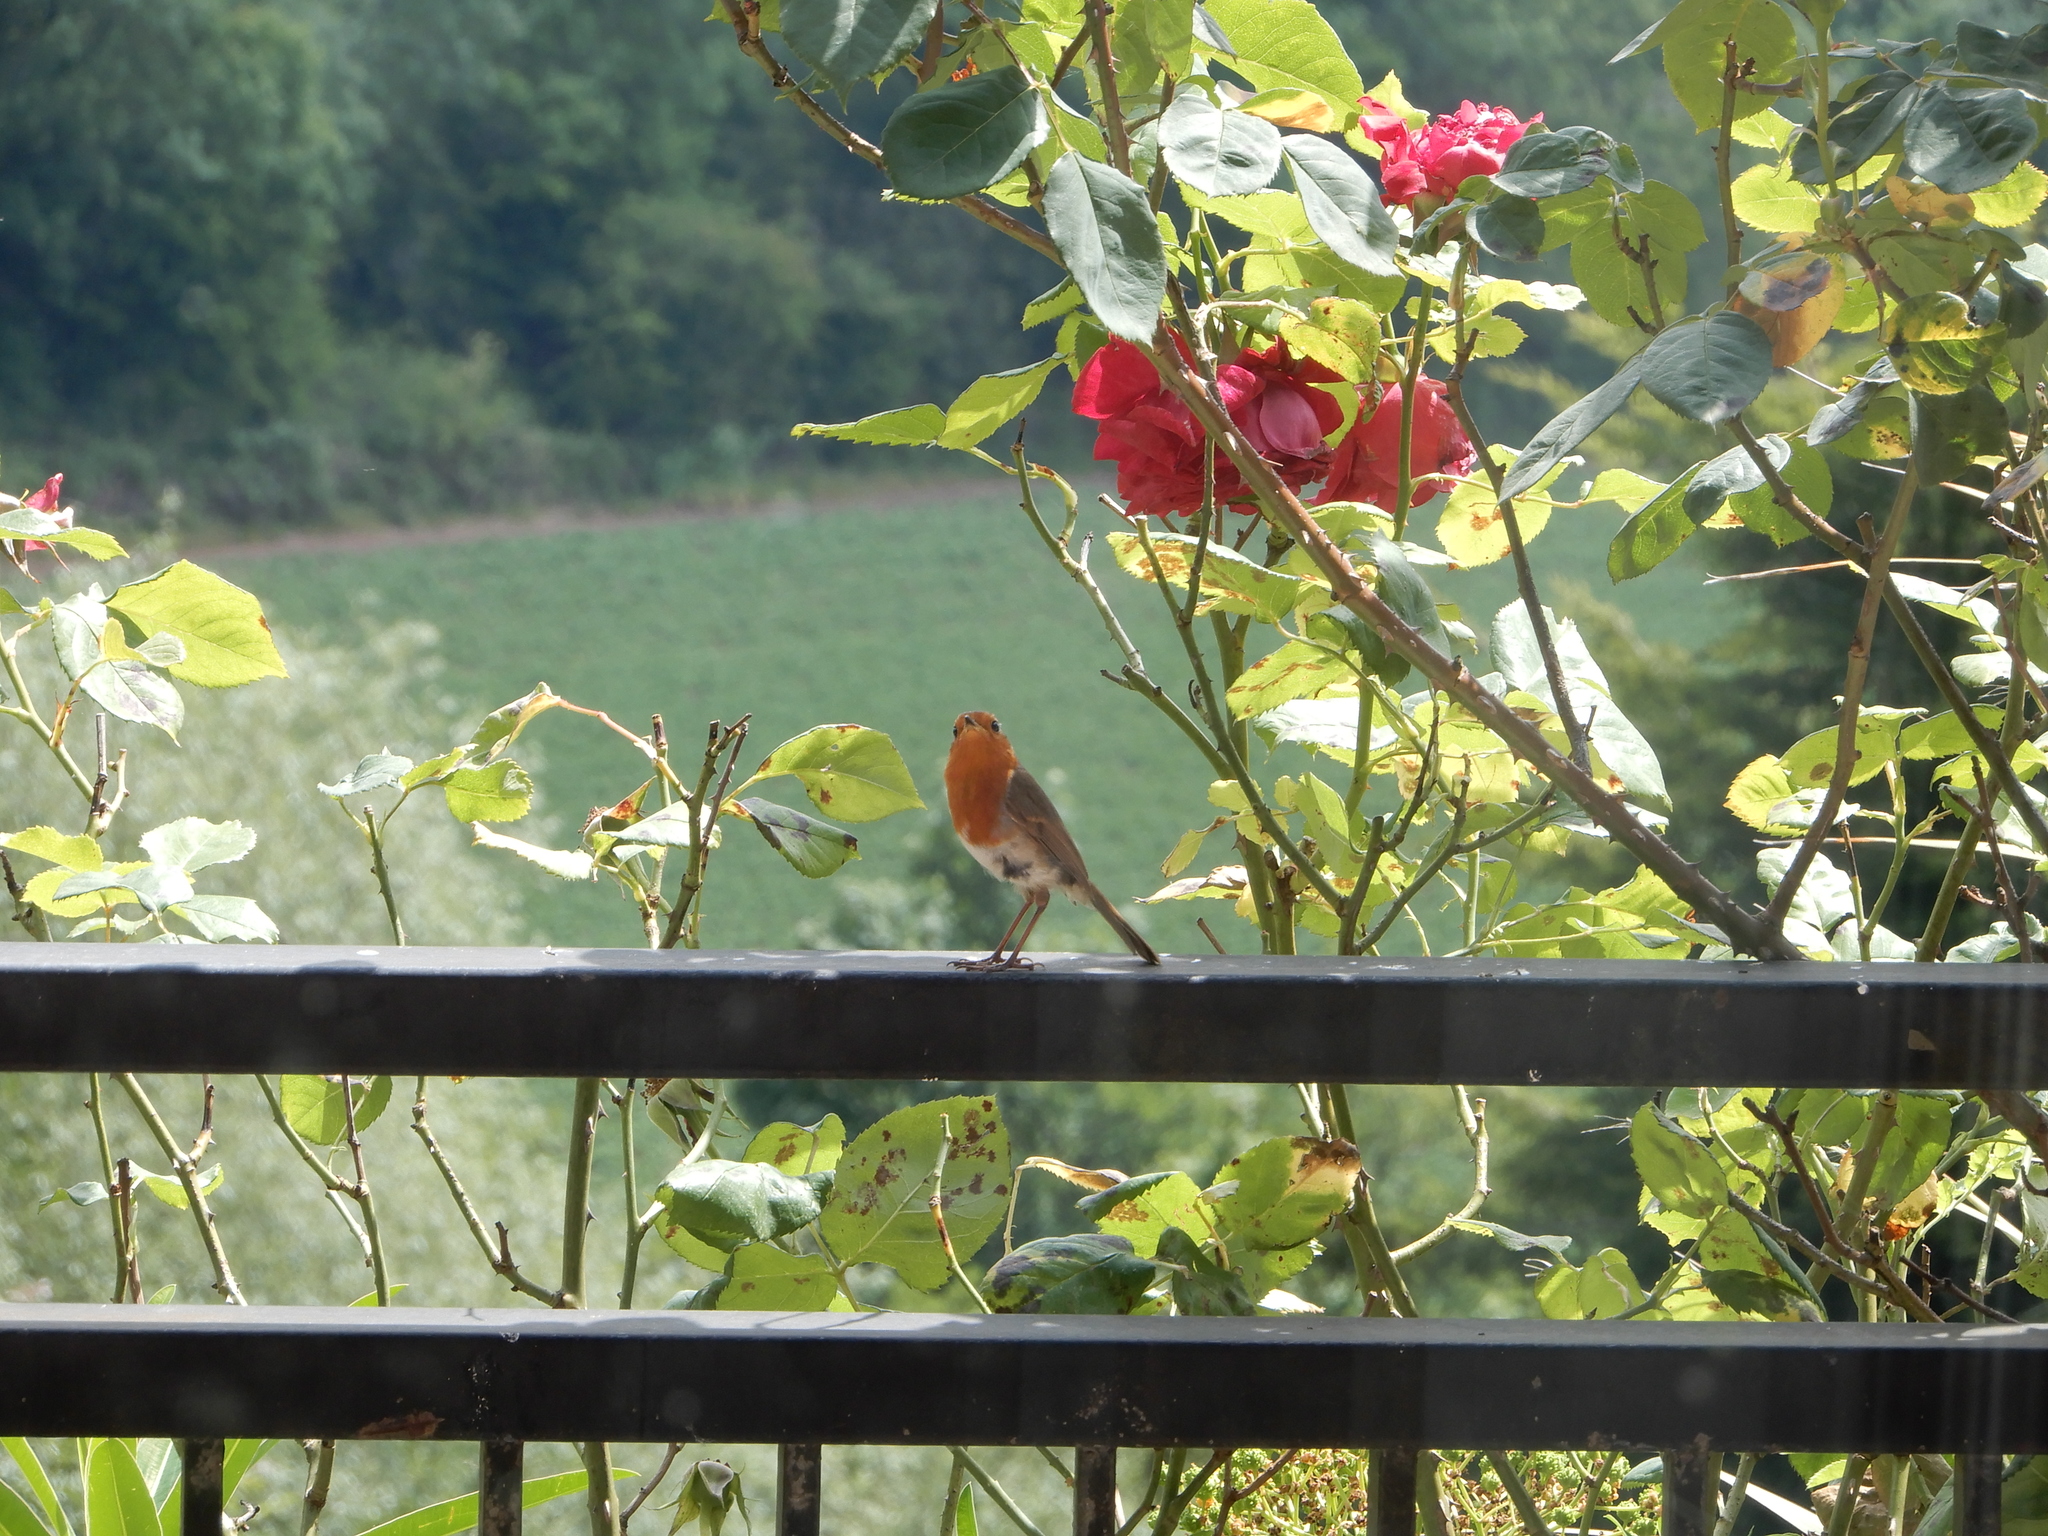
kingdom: Animalia
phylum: Chordata
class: Aves
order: Passeriformes
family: Muscicapidae
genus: Erithacus
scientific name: Erithacus rubecula
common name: European robin
